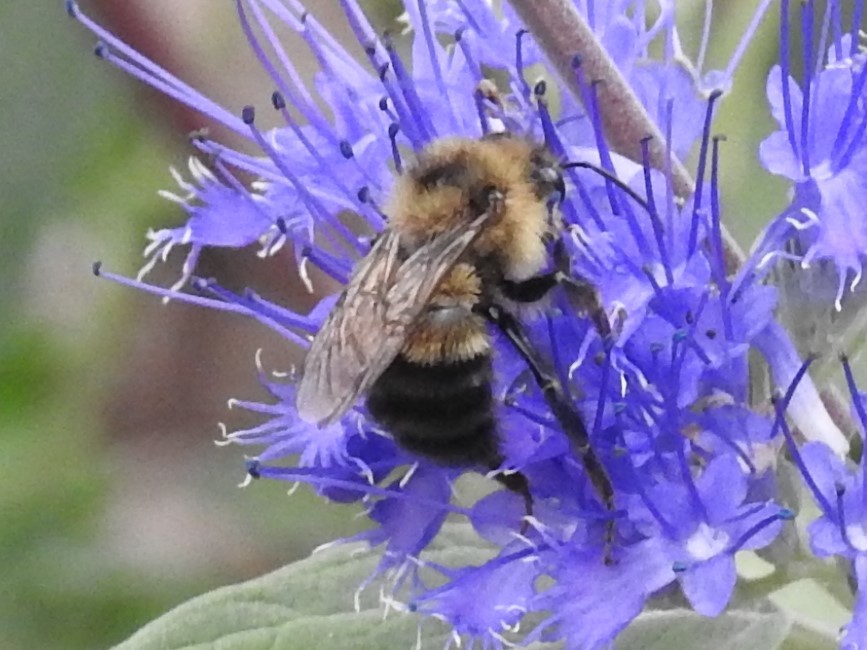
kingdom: Animalia
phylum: Arthropoda
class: Insecta
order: Hymenoptera
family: Apidae
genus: Bombus
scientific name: Bombus vagans
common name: Half-black bumble bee
